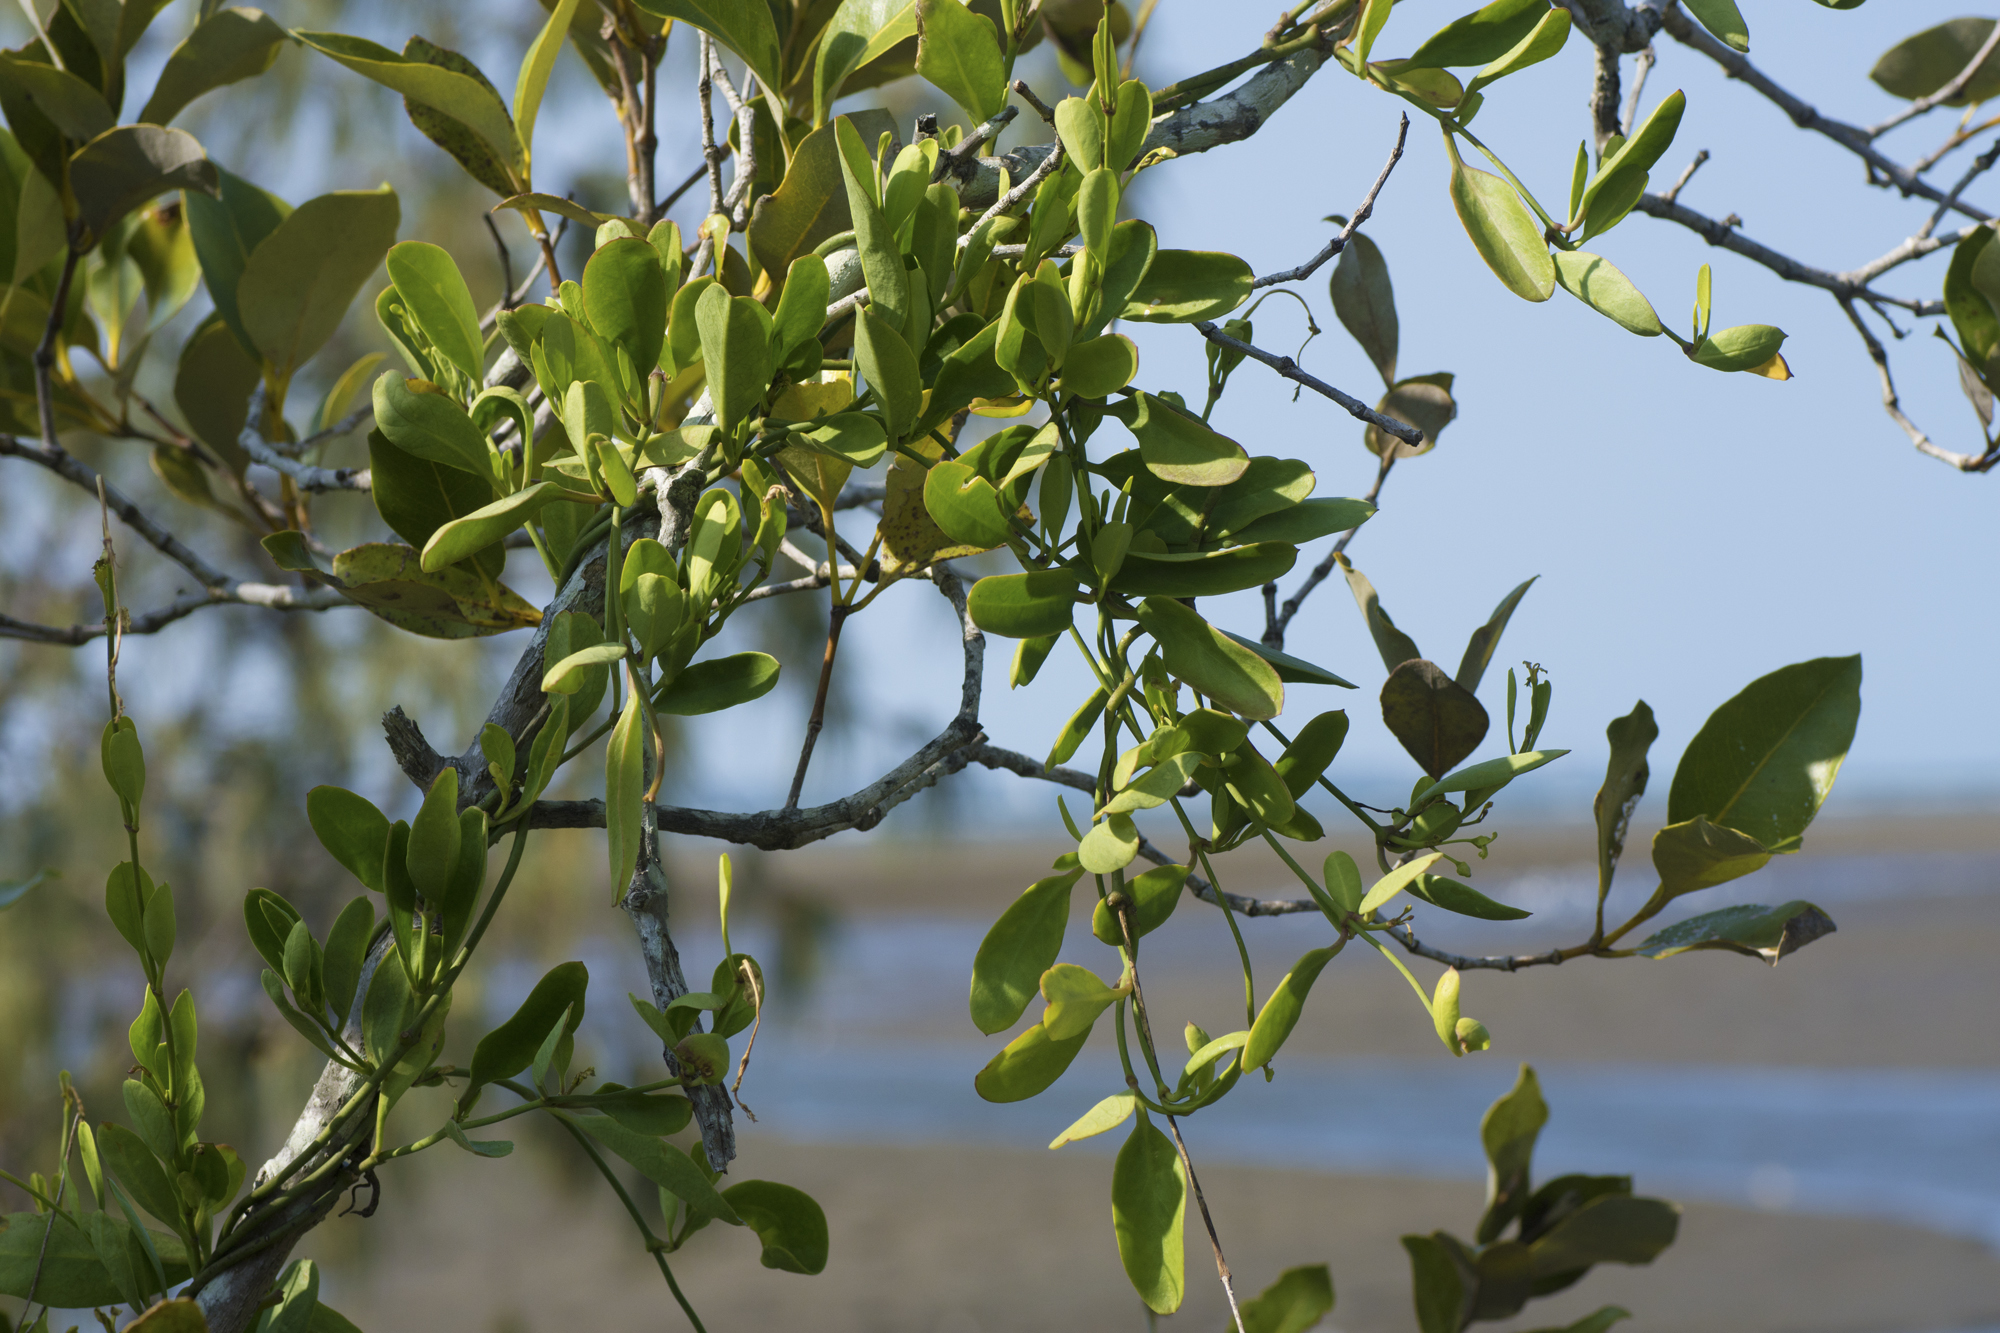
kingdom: Plantae
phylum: Tracheophyta
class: Magnoliopsida
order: Gentianales
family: Apocynaceae
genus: Vincetoxicum
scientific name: Vincetoxicum carnosum
